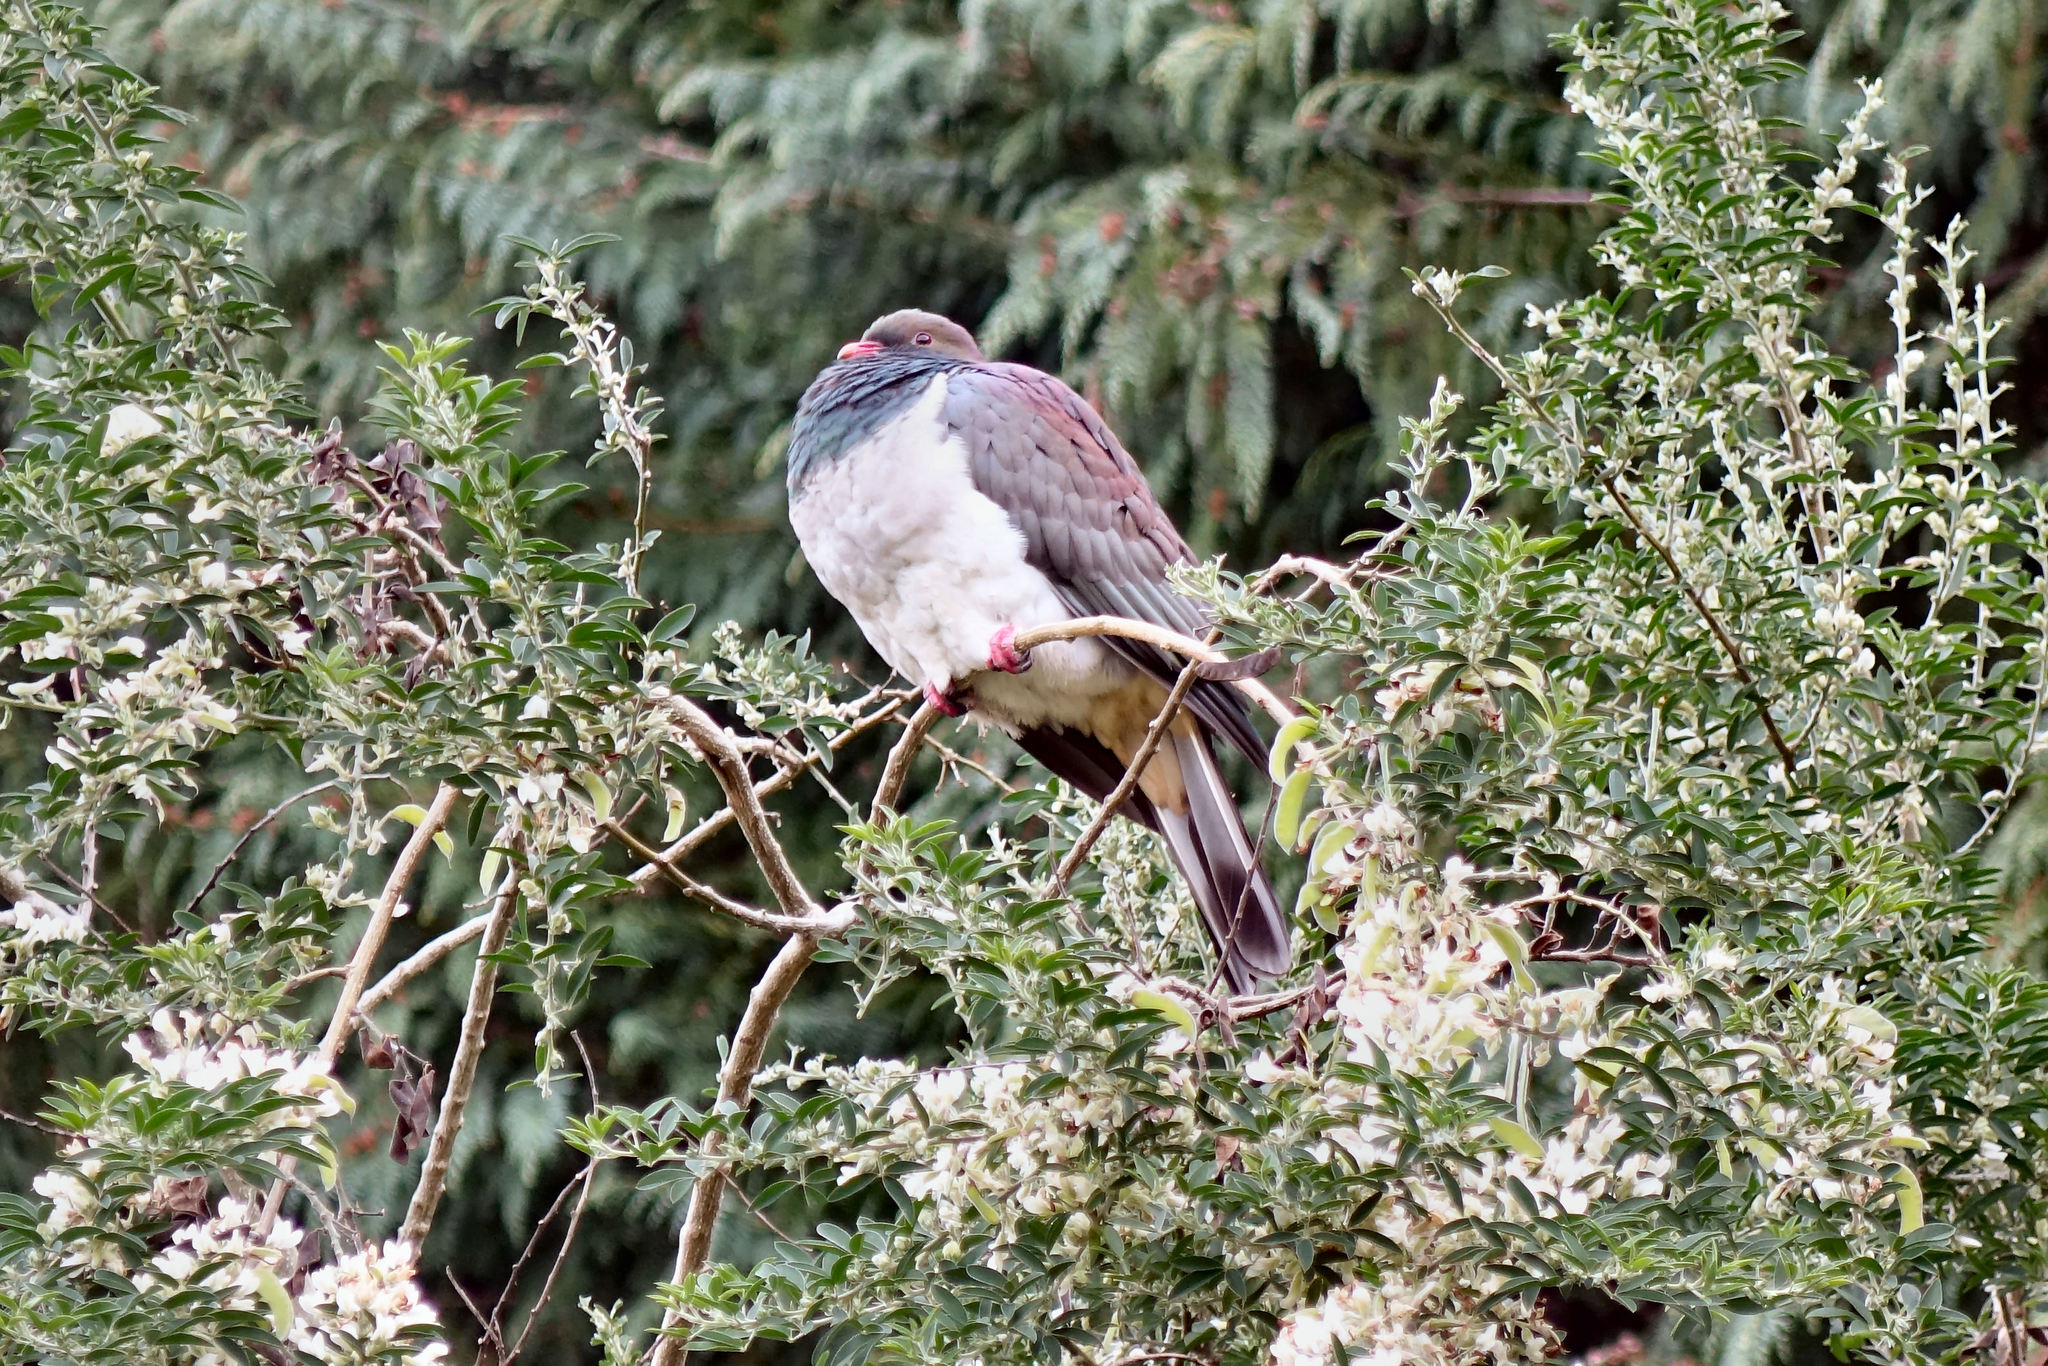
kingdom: Animalia
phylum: Chordata
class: Aves
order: Columbiformes
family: Columbidae
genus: Hemiphaga
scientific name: Hemiphaga novaeseelandiae
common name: New zealand pigeon
